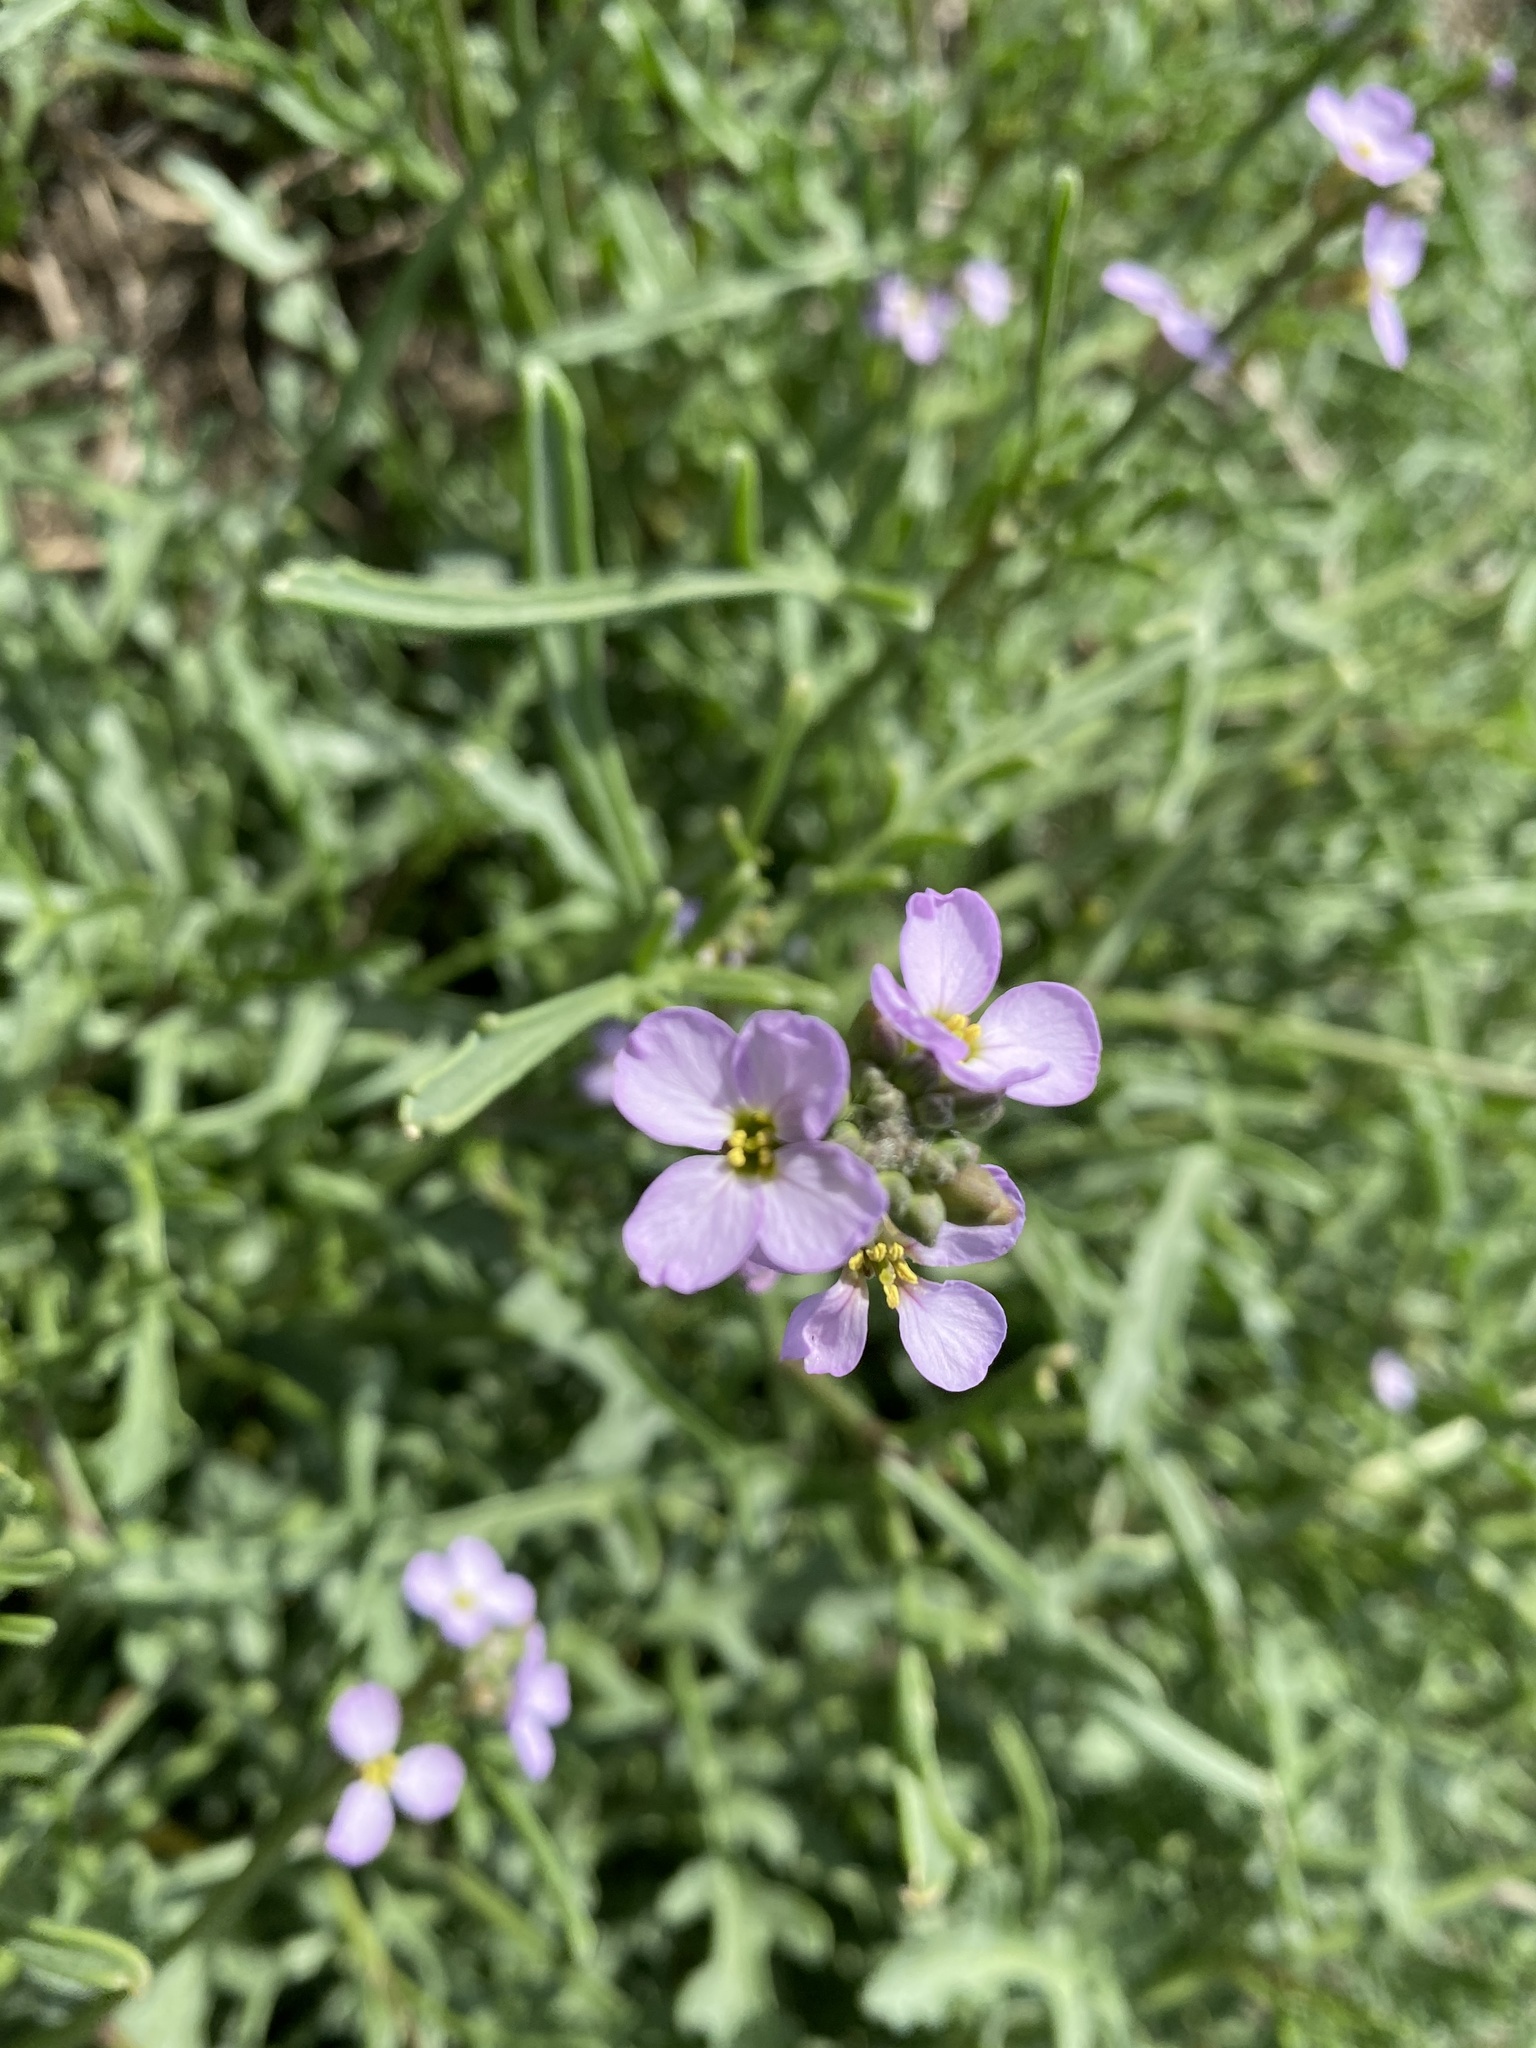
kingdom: Plantae
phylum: Tracheophyta
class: Magnoliopsida
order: Brassicales
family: Brassicaceae
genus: Cakile
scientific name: Cakile maritima
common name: Sea rocket
